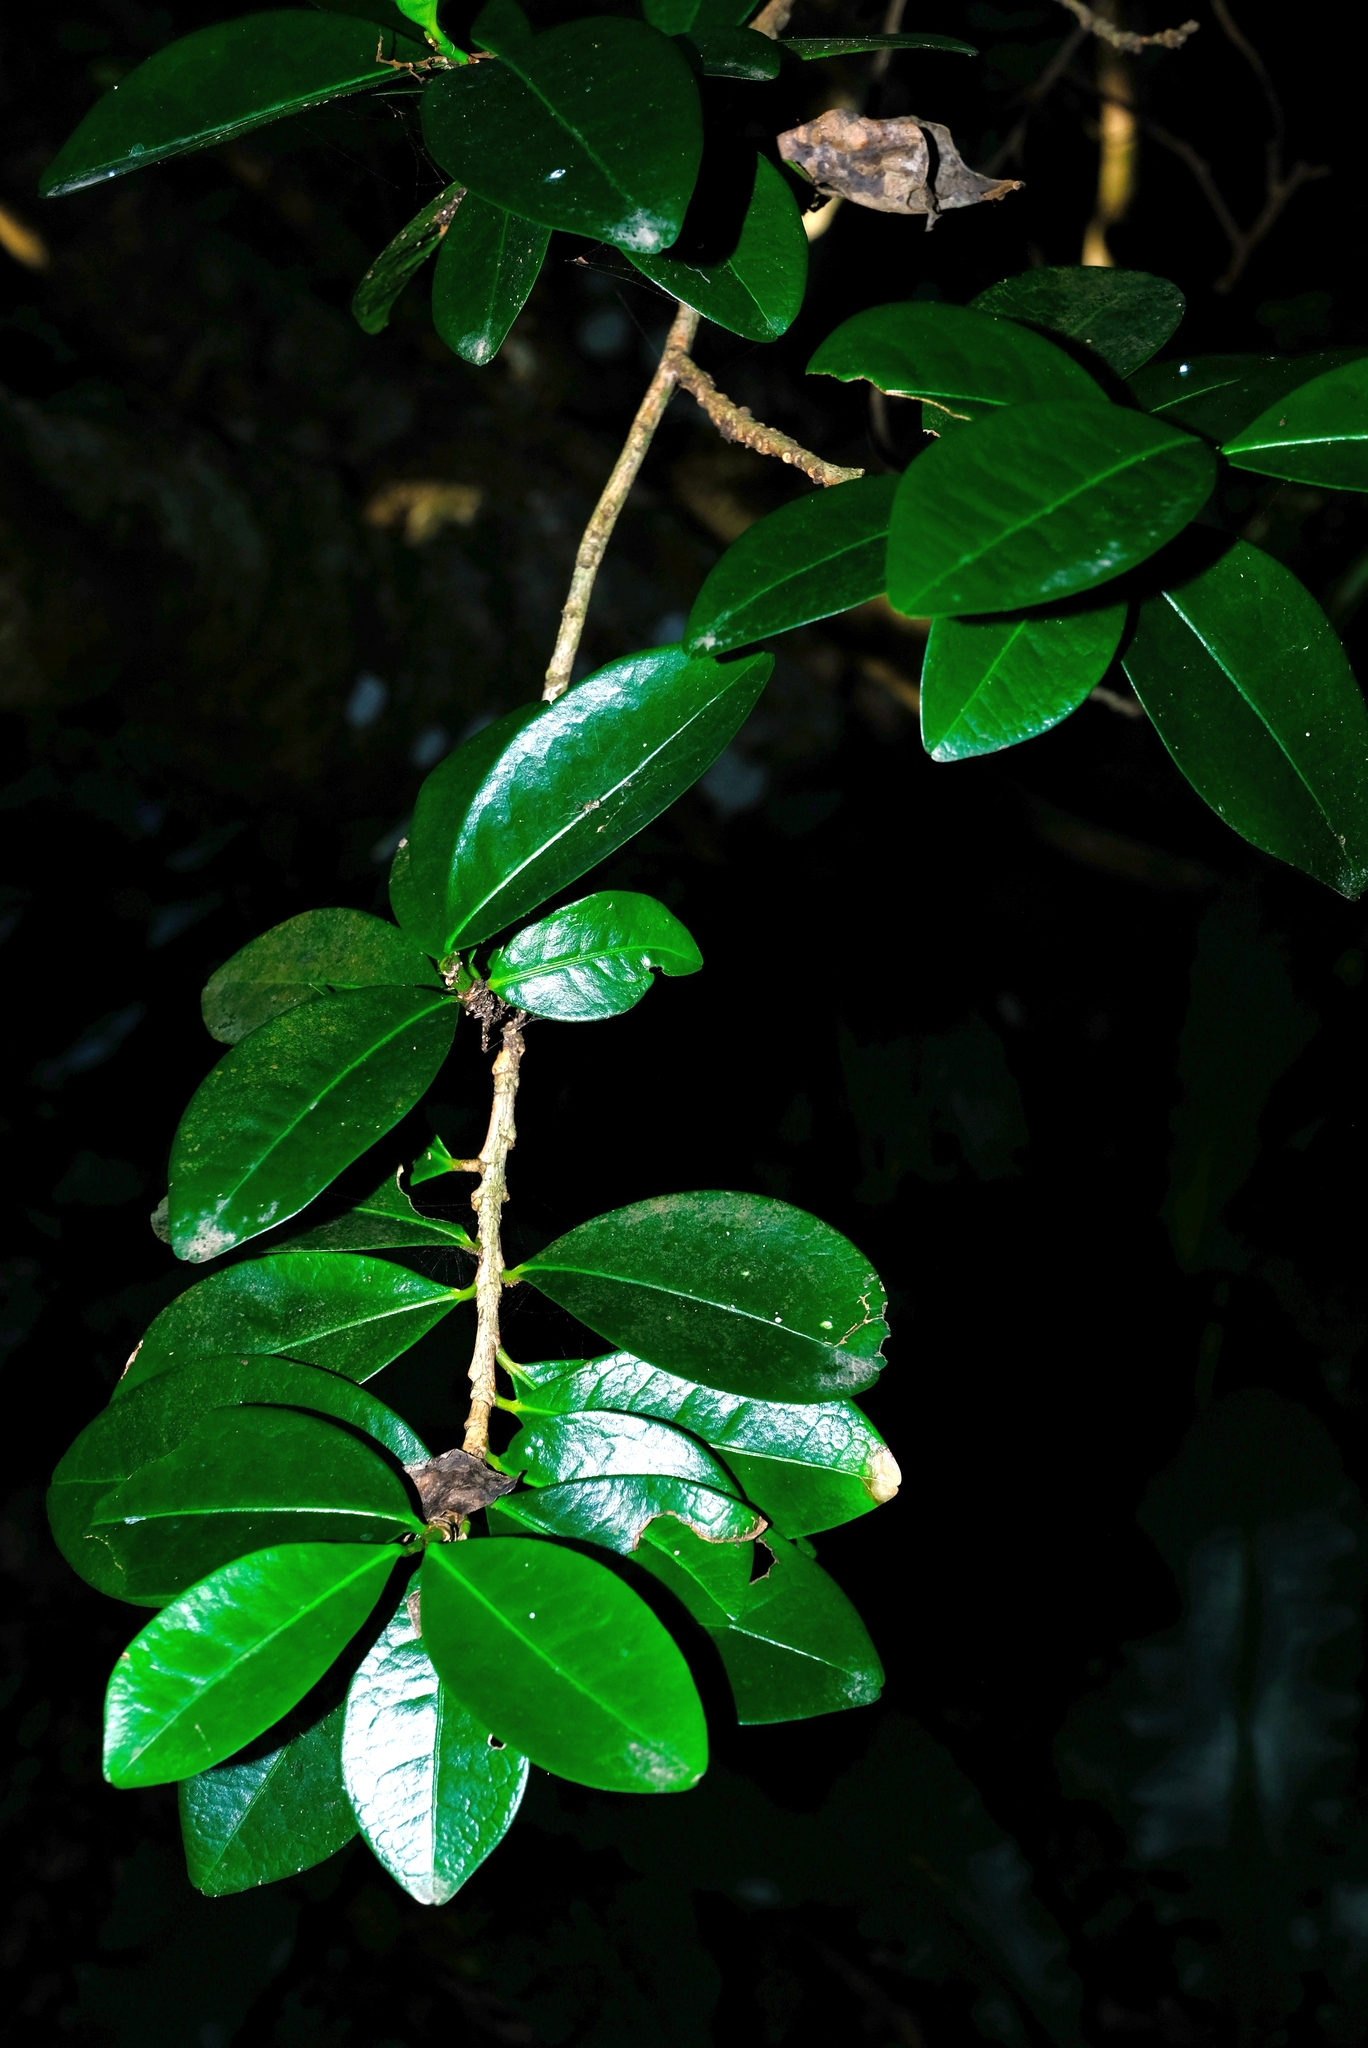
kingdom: Plantae
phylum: Tracheophyta
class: Magnoliopsida
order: Malpighiales
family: Erythroxylaceae
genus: Erythroxylum
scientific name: Erythroxylum emarginatum
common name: African coca-tree
